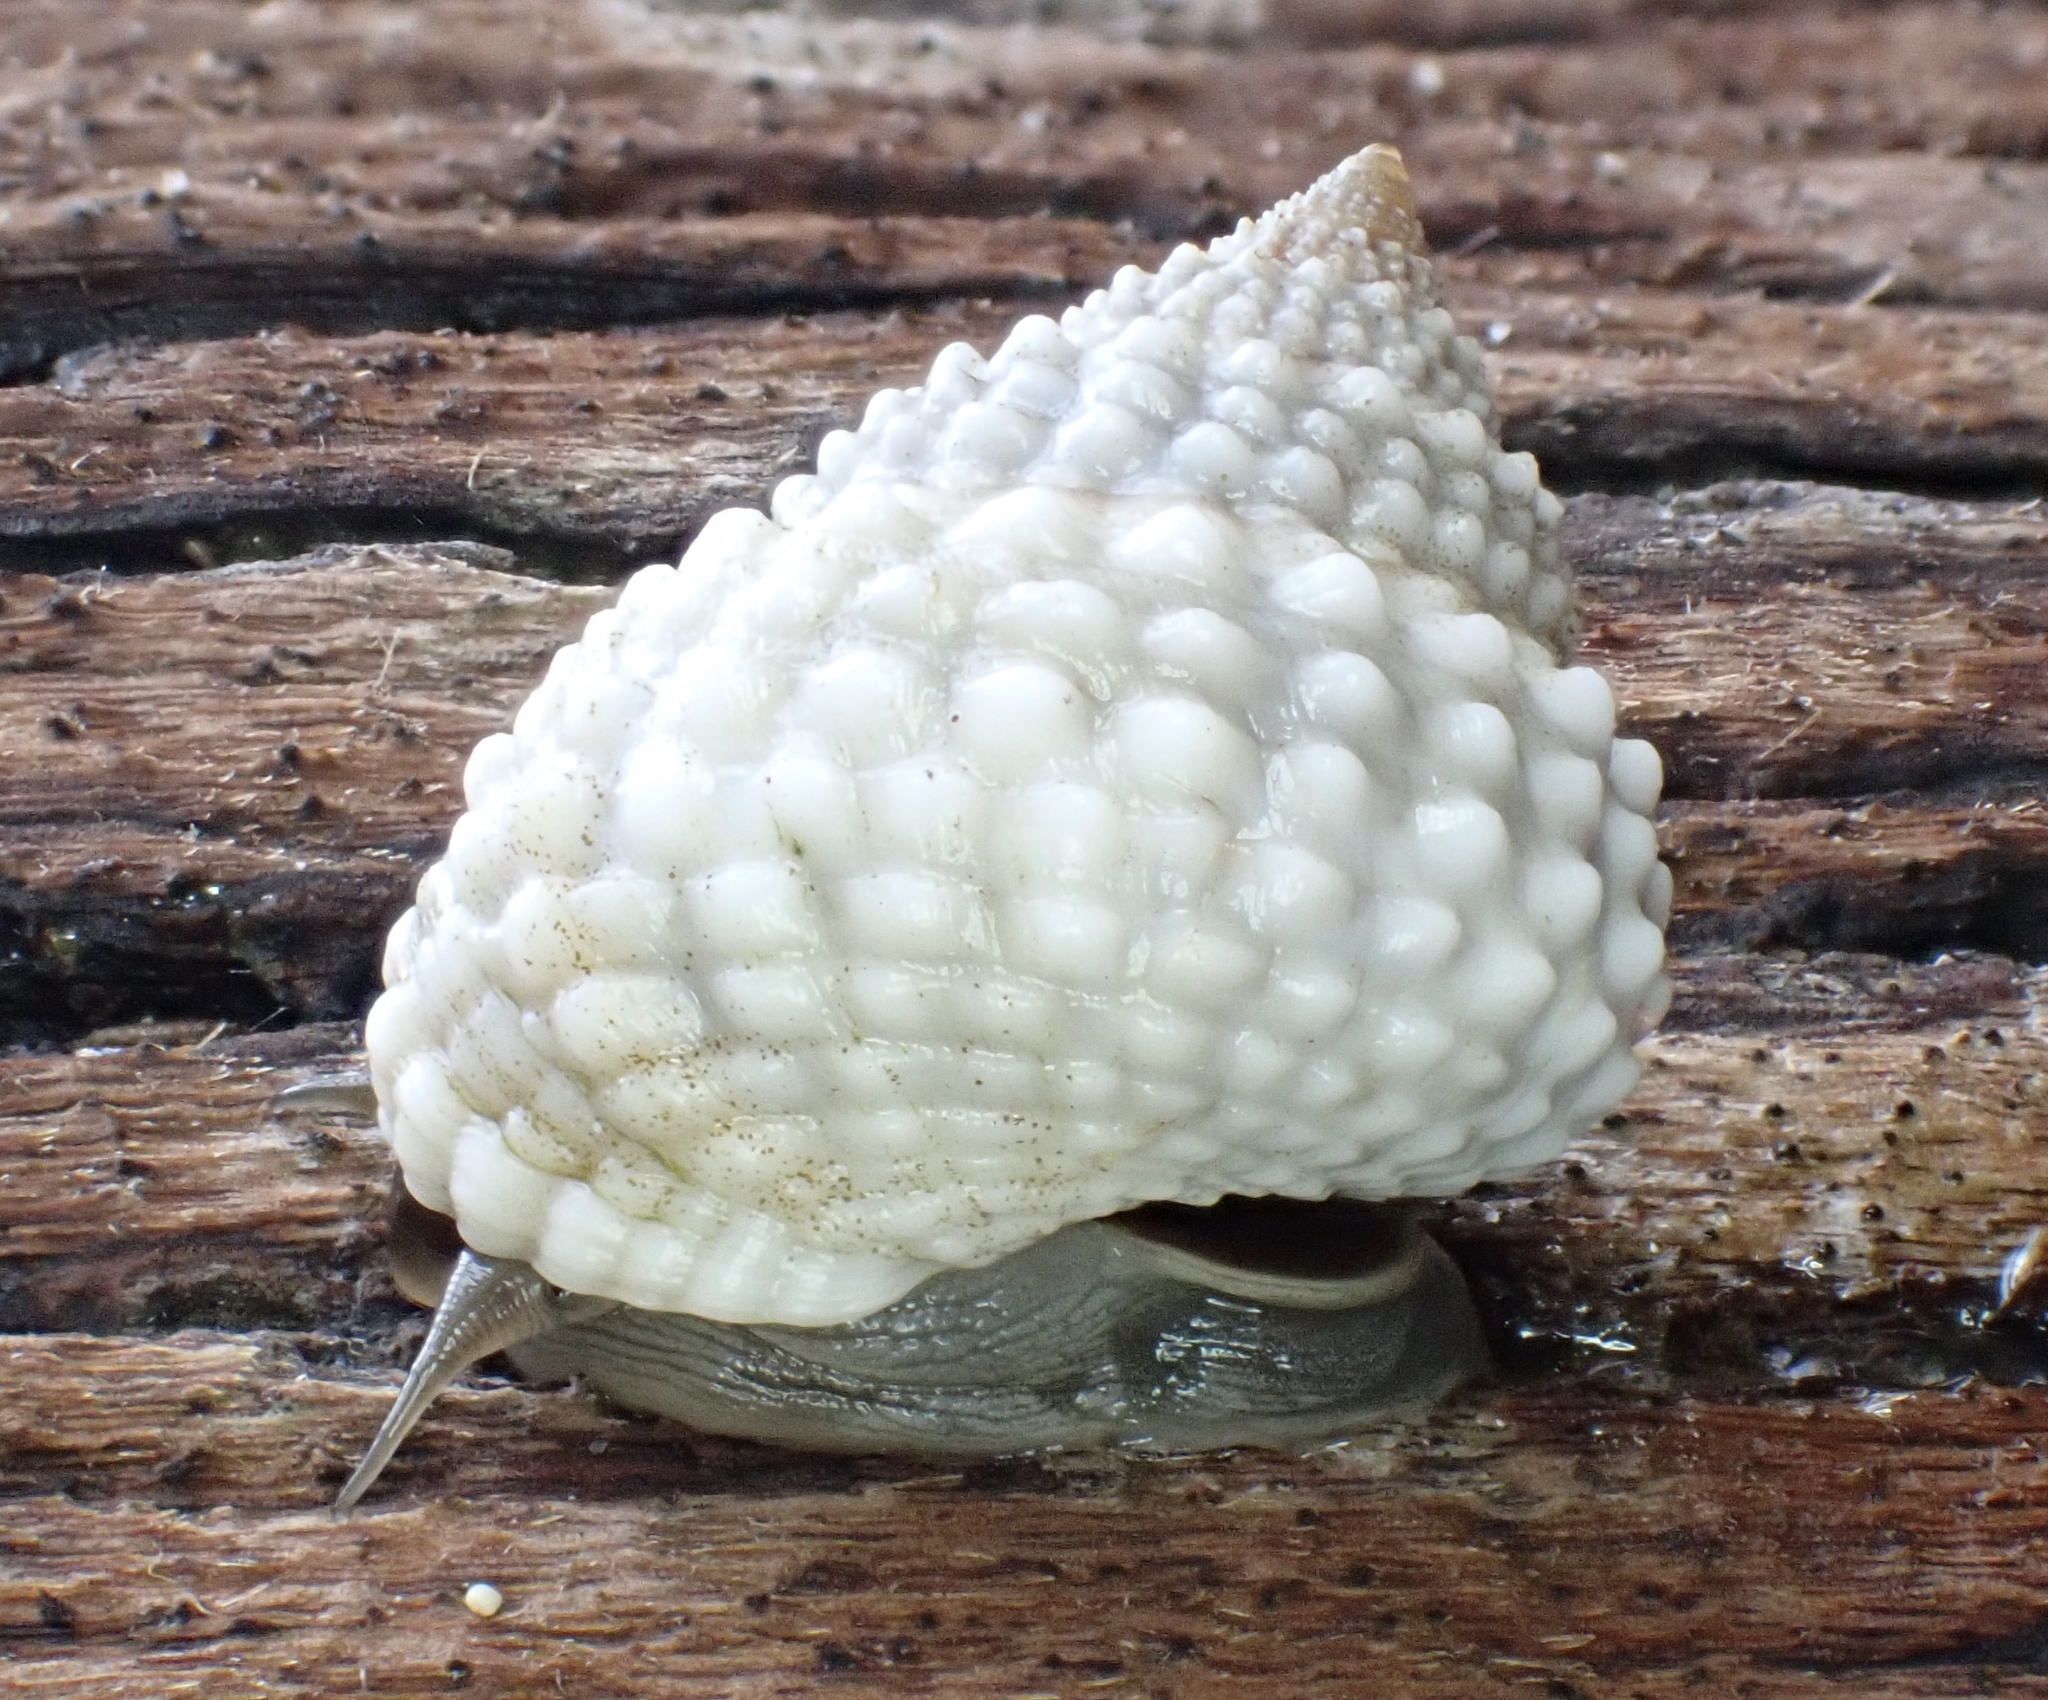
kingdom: Animalia
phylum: Mollusca
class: Gastropoda
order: Littorinimorpha
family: Littorinidae
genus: Cenchritis
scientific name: Cenchritis muricatus
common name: Beaded periwinkle
